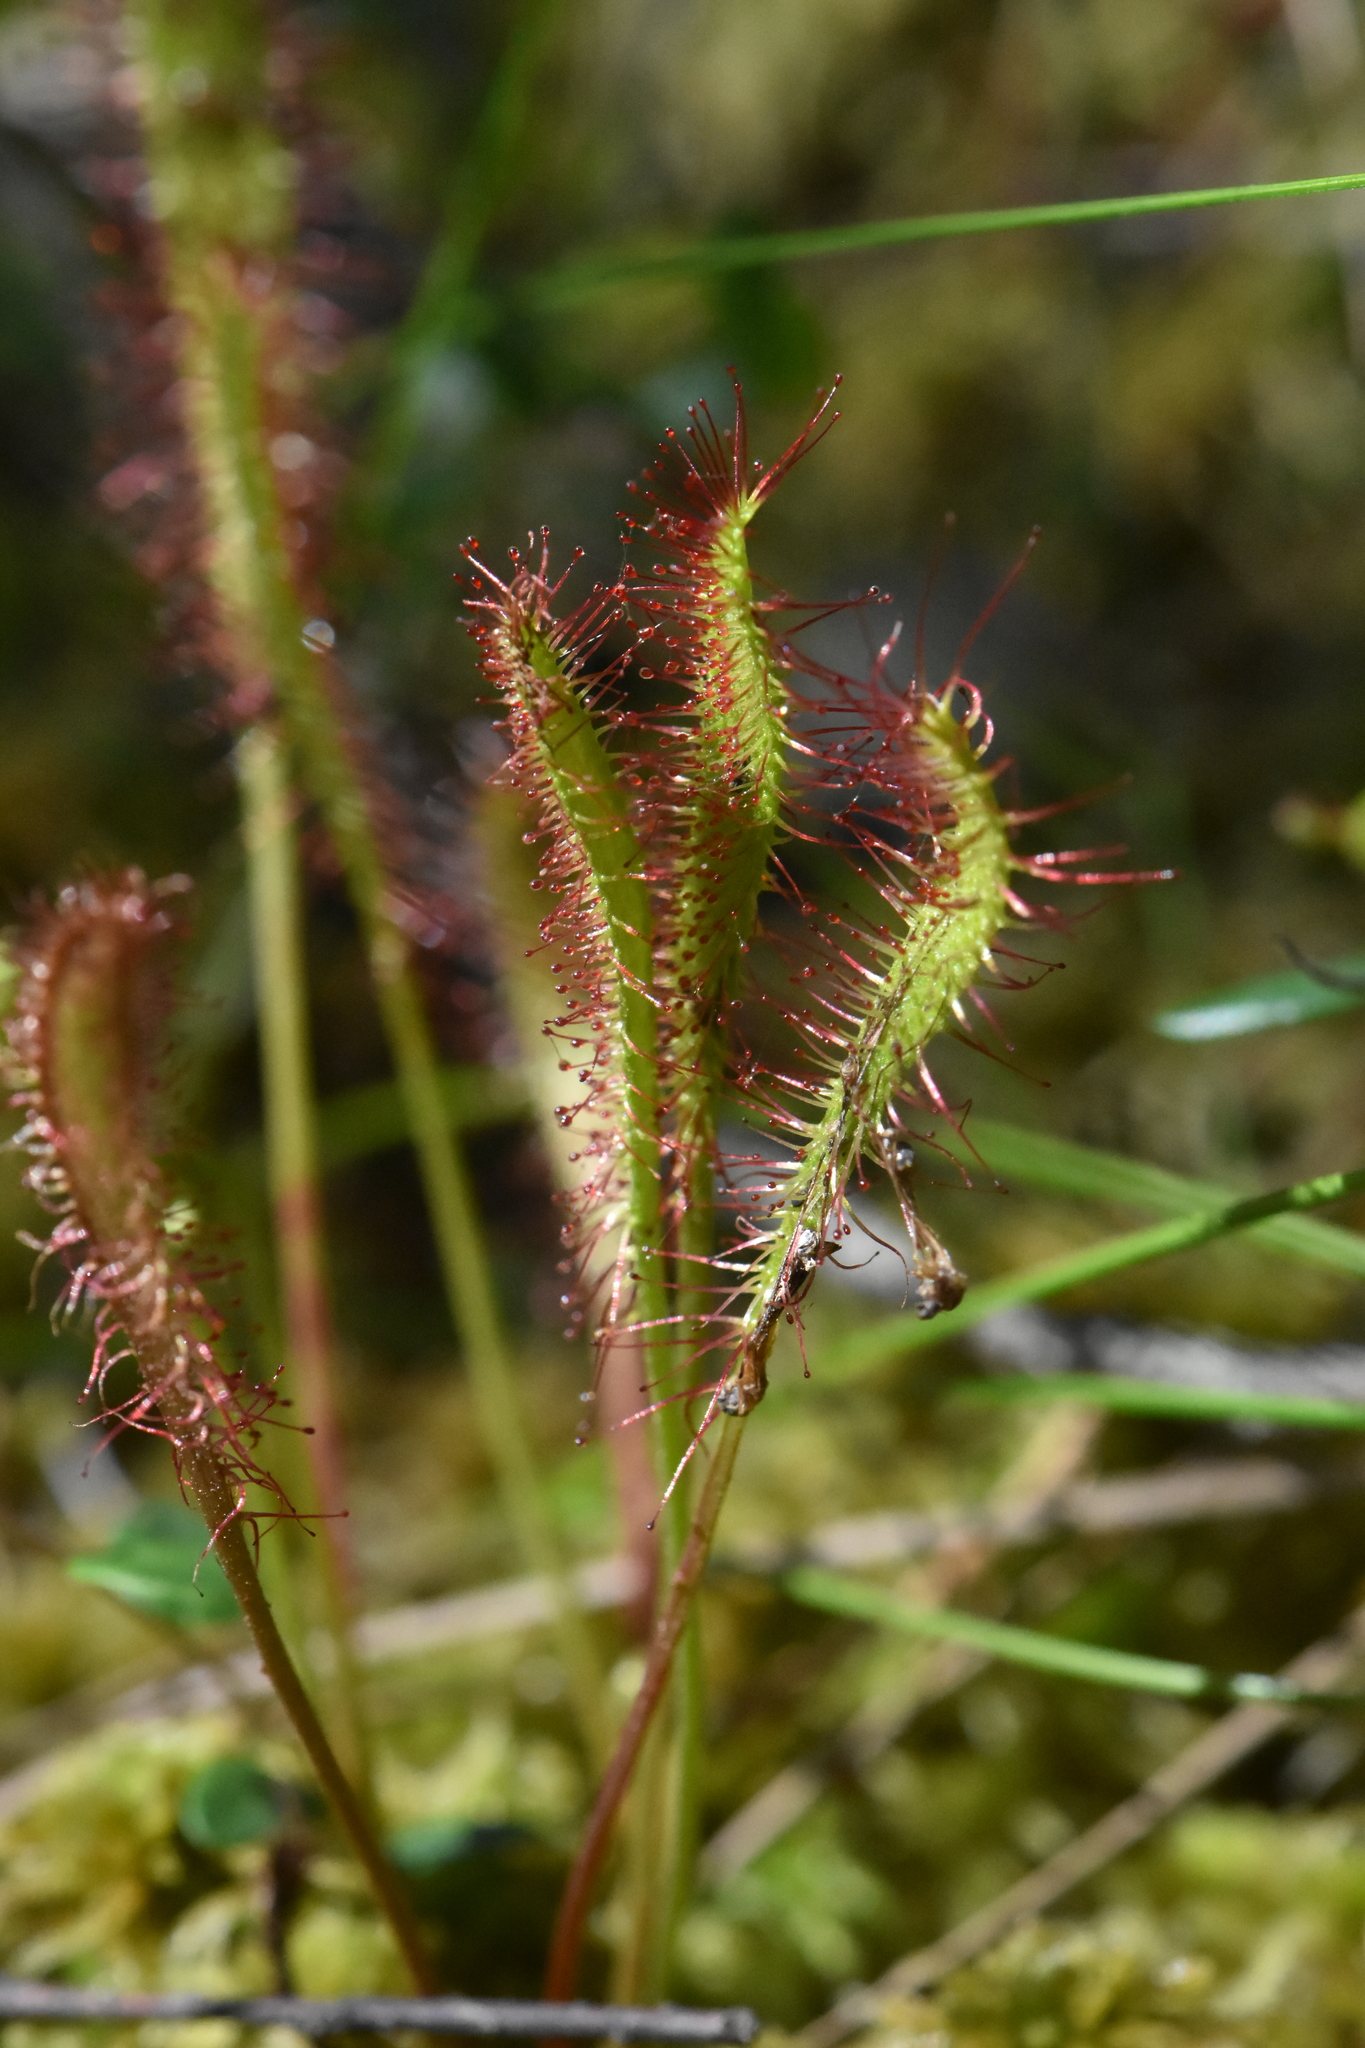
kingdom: Plantae
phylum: Tracheophyta
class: Magnoliopsida
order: Caryophyllales
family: Droseraceae
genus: Drosera
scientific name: Drosera anglica
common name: Great sundew
